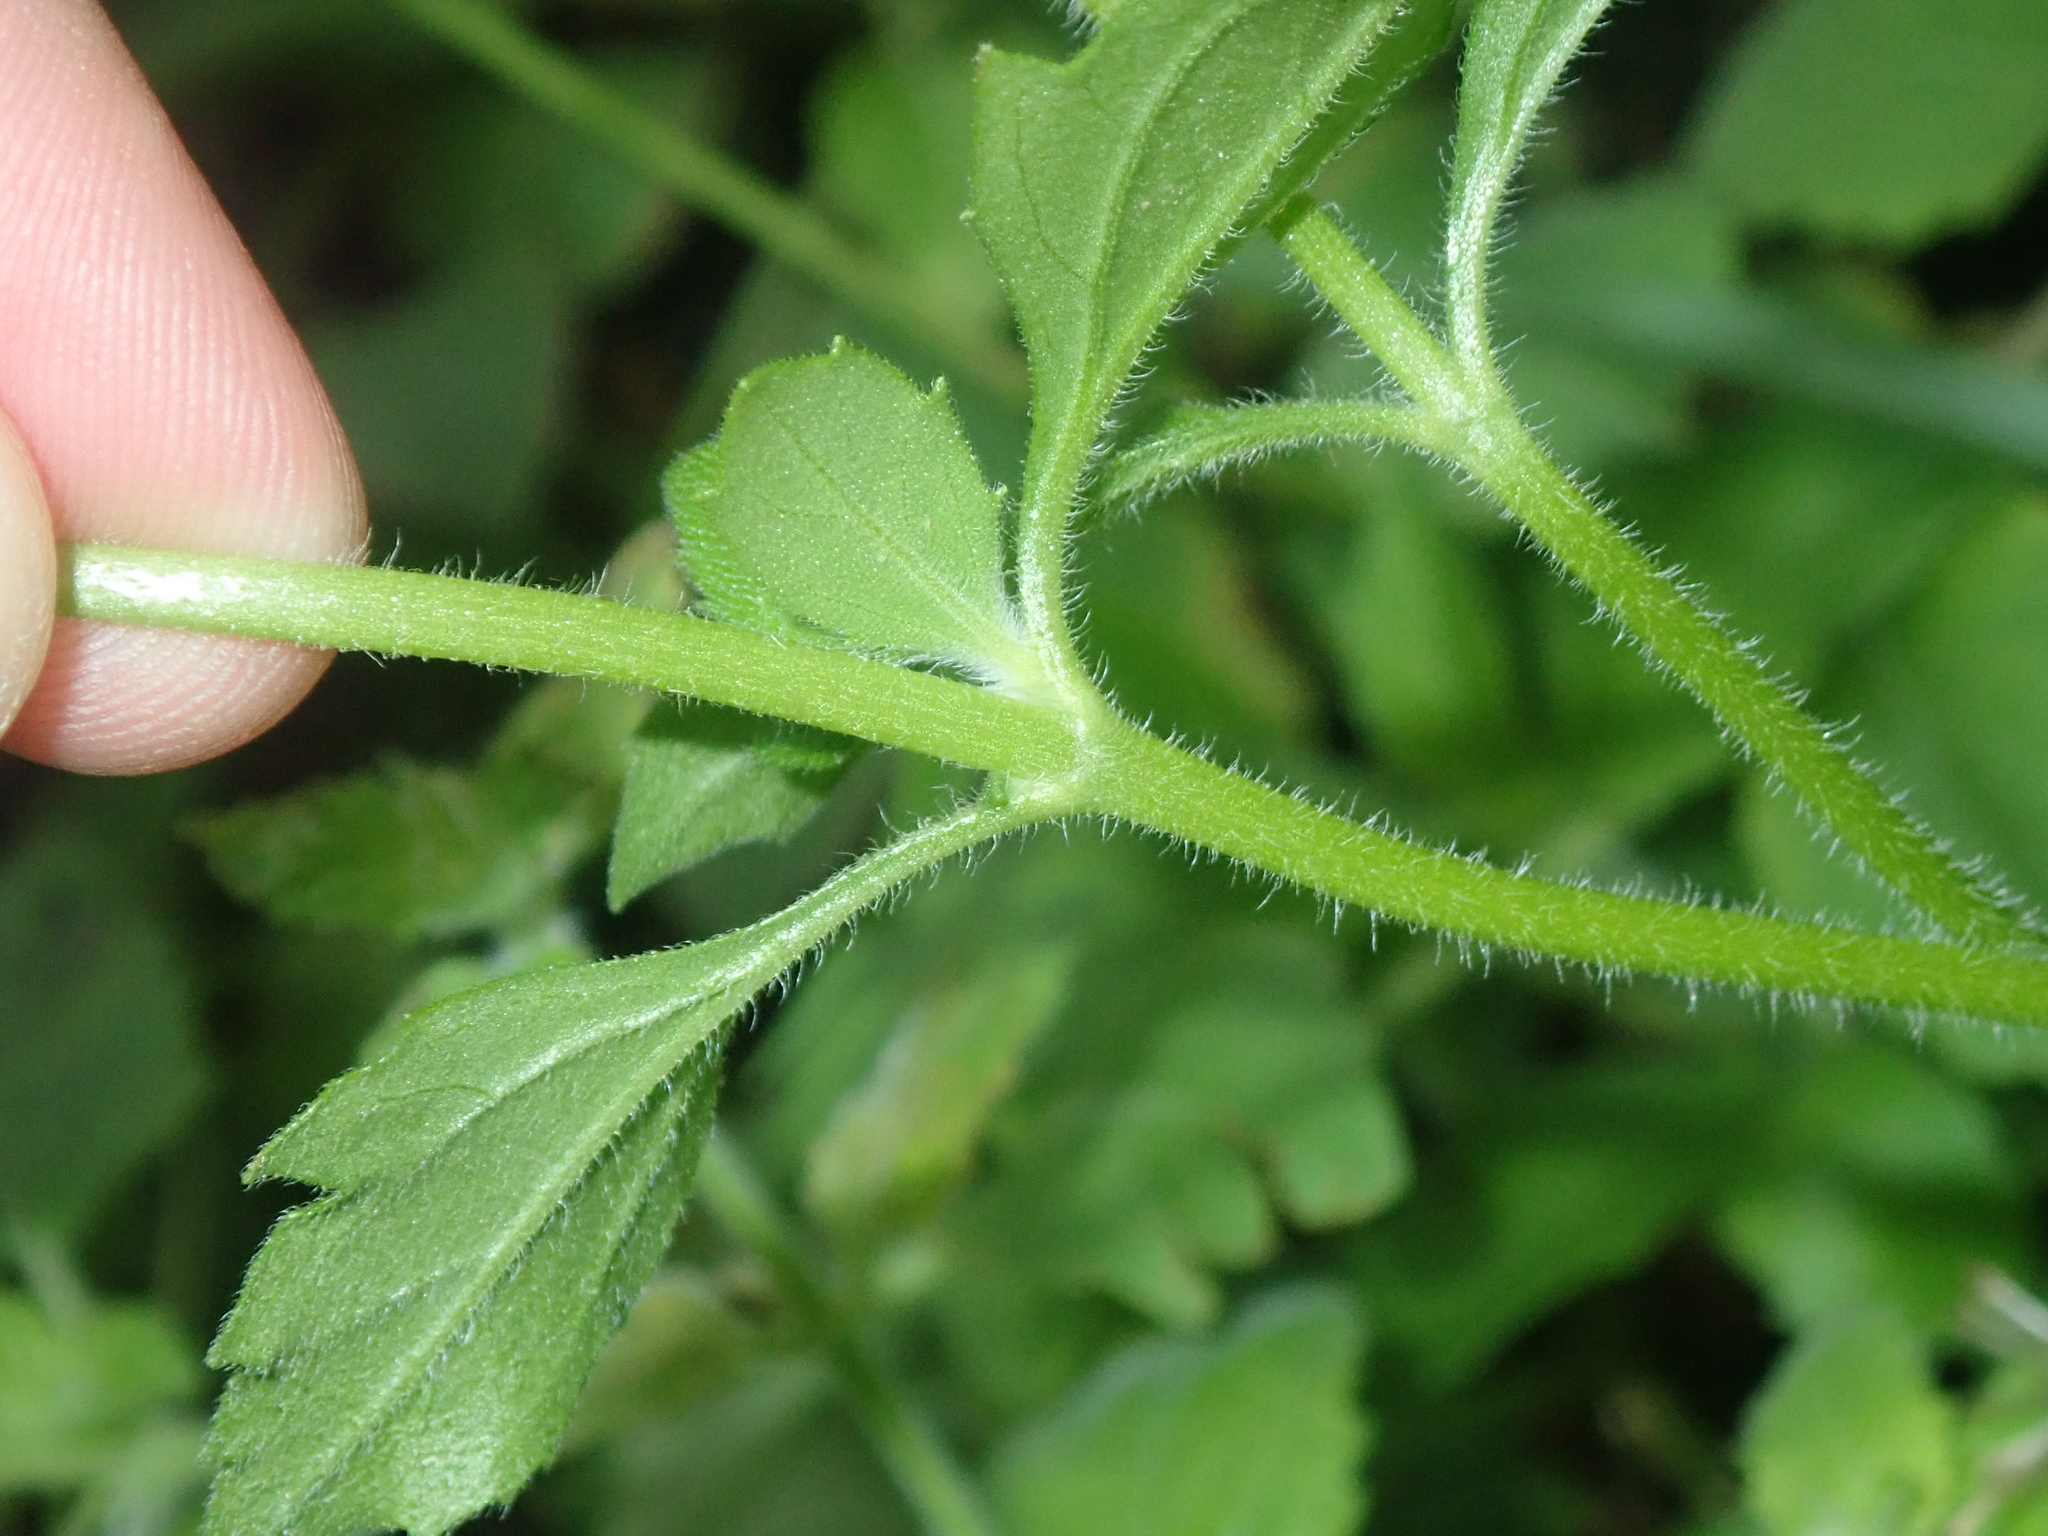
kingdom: Plantae
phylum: Tracheophyta
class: Magnoliopsida
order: Asterales
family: Asteraceae
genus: Tridax
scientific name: Tridax procumbens
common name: Coatbuttons
